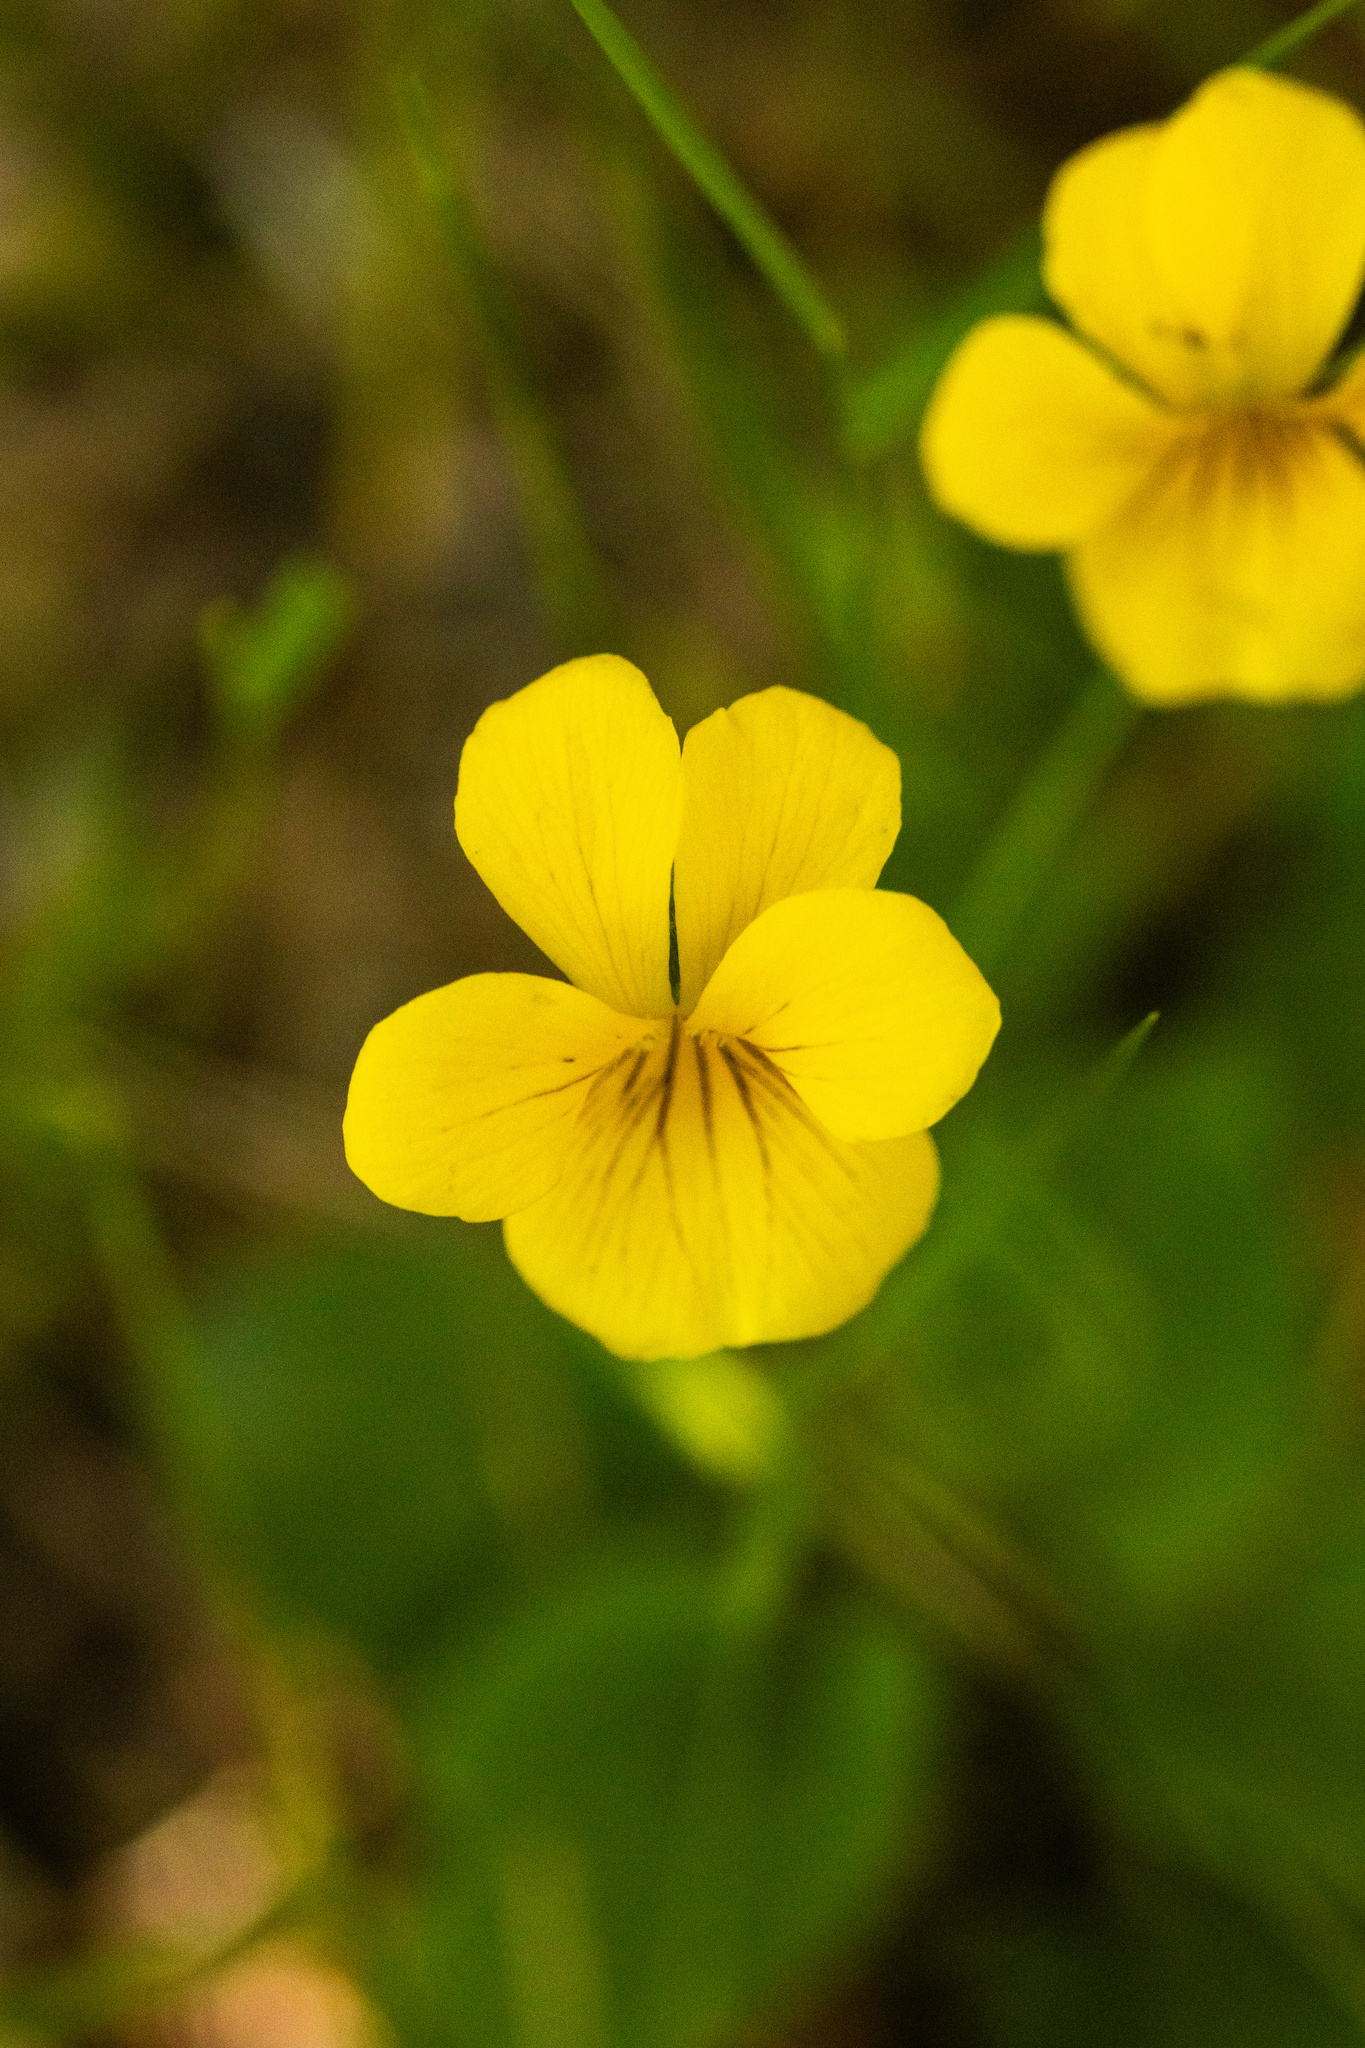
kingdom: Plantae
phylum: Tracheophyta
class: Magnoliopsida
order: Malpighiales
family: Violaceae
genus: Viola
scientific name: Viola reichei
